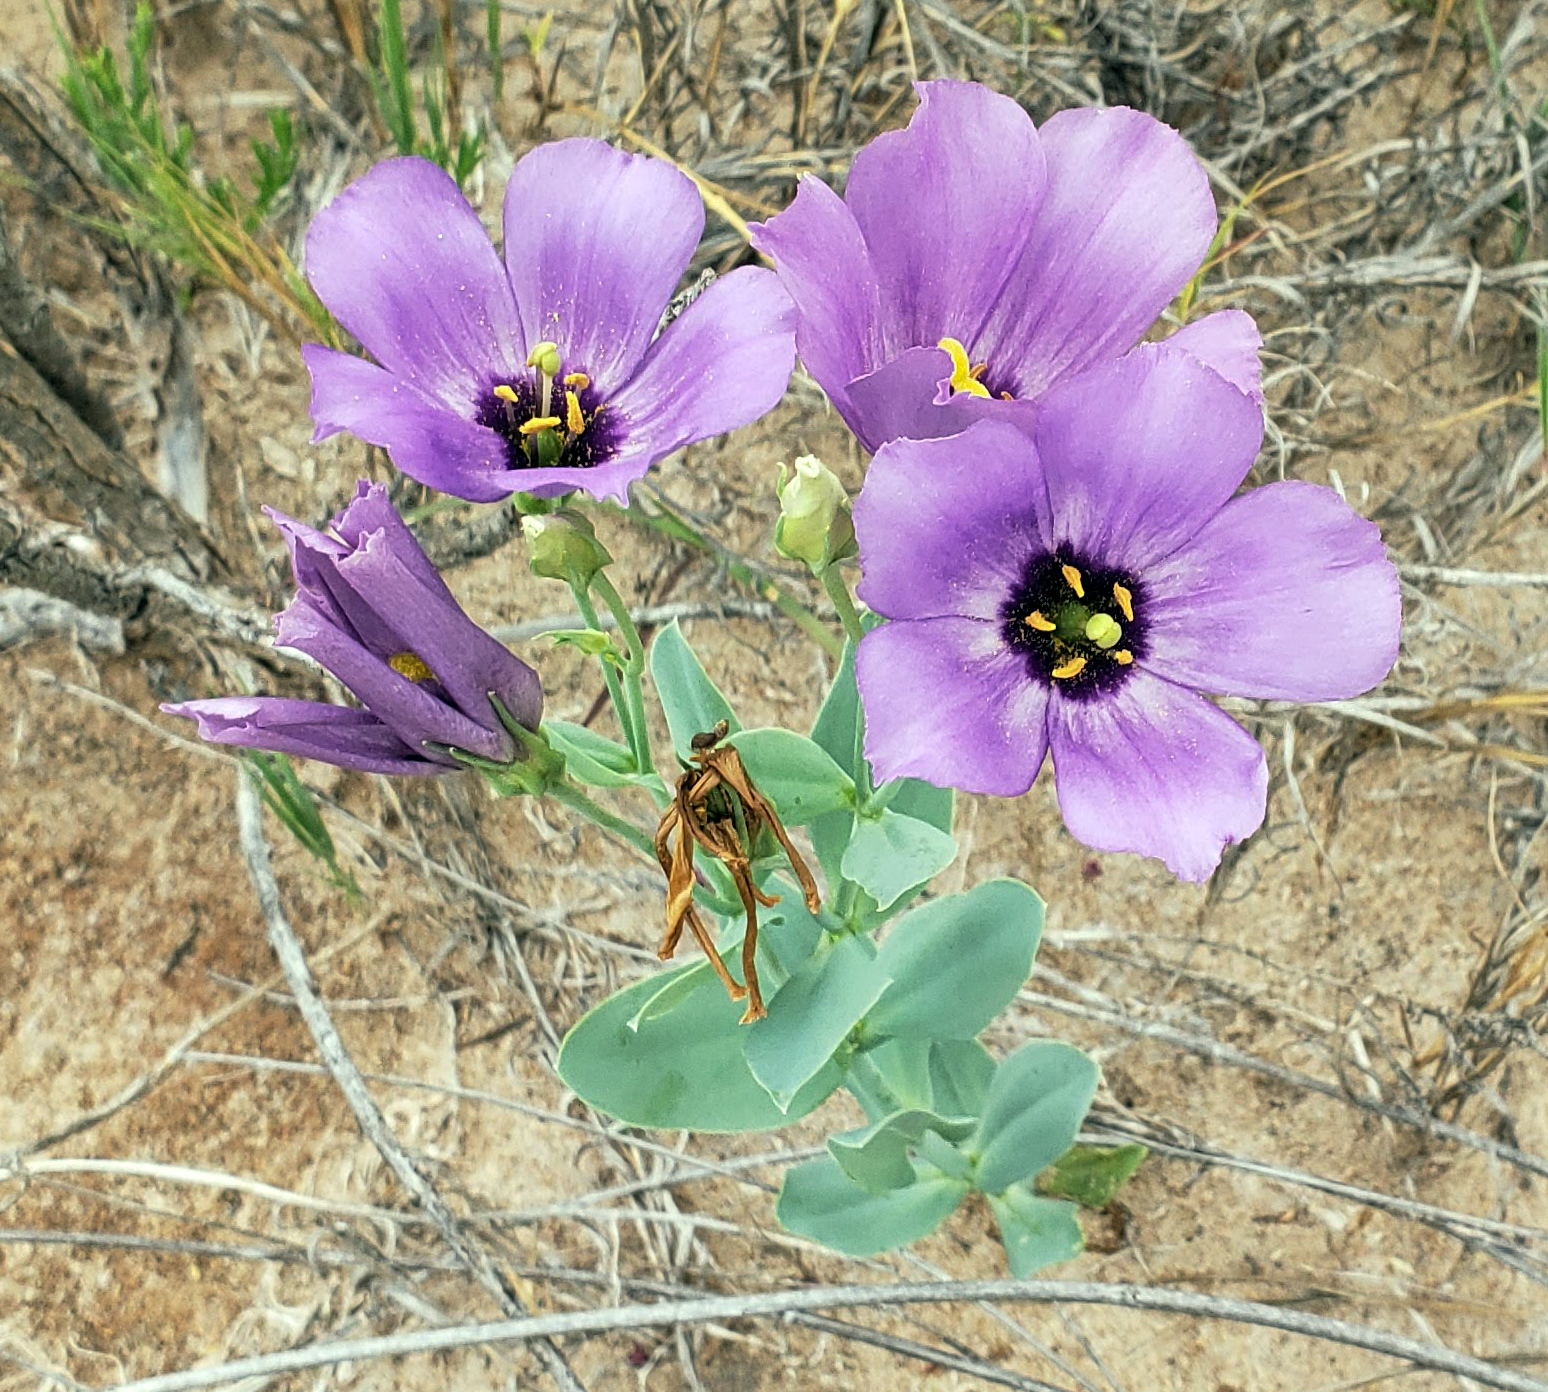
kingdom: Plantae
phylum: Tracheophyta
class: Magnoliopsida
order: Gentianales
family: Gentianaceae
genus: Eustoma
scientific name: Eustoma russellianum
